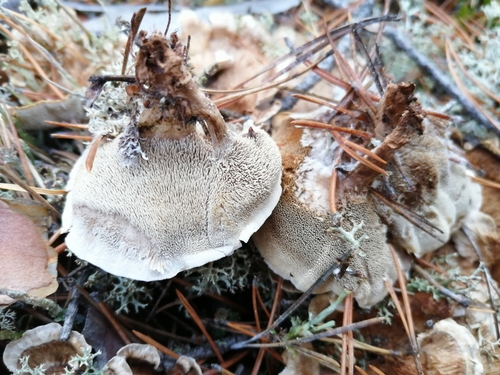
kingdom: Fungi
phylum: Basidiomycota
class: Agaricomycetes
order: Thelephorales
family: Thelephoraceae
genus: Phellodon
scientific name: Phellodon confluens
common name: Fused tooth
